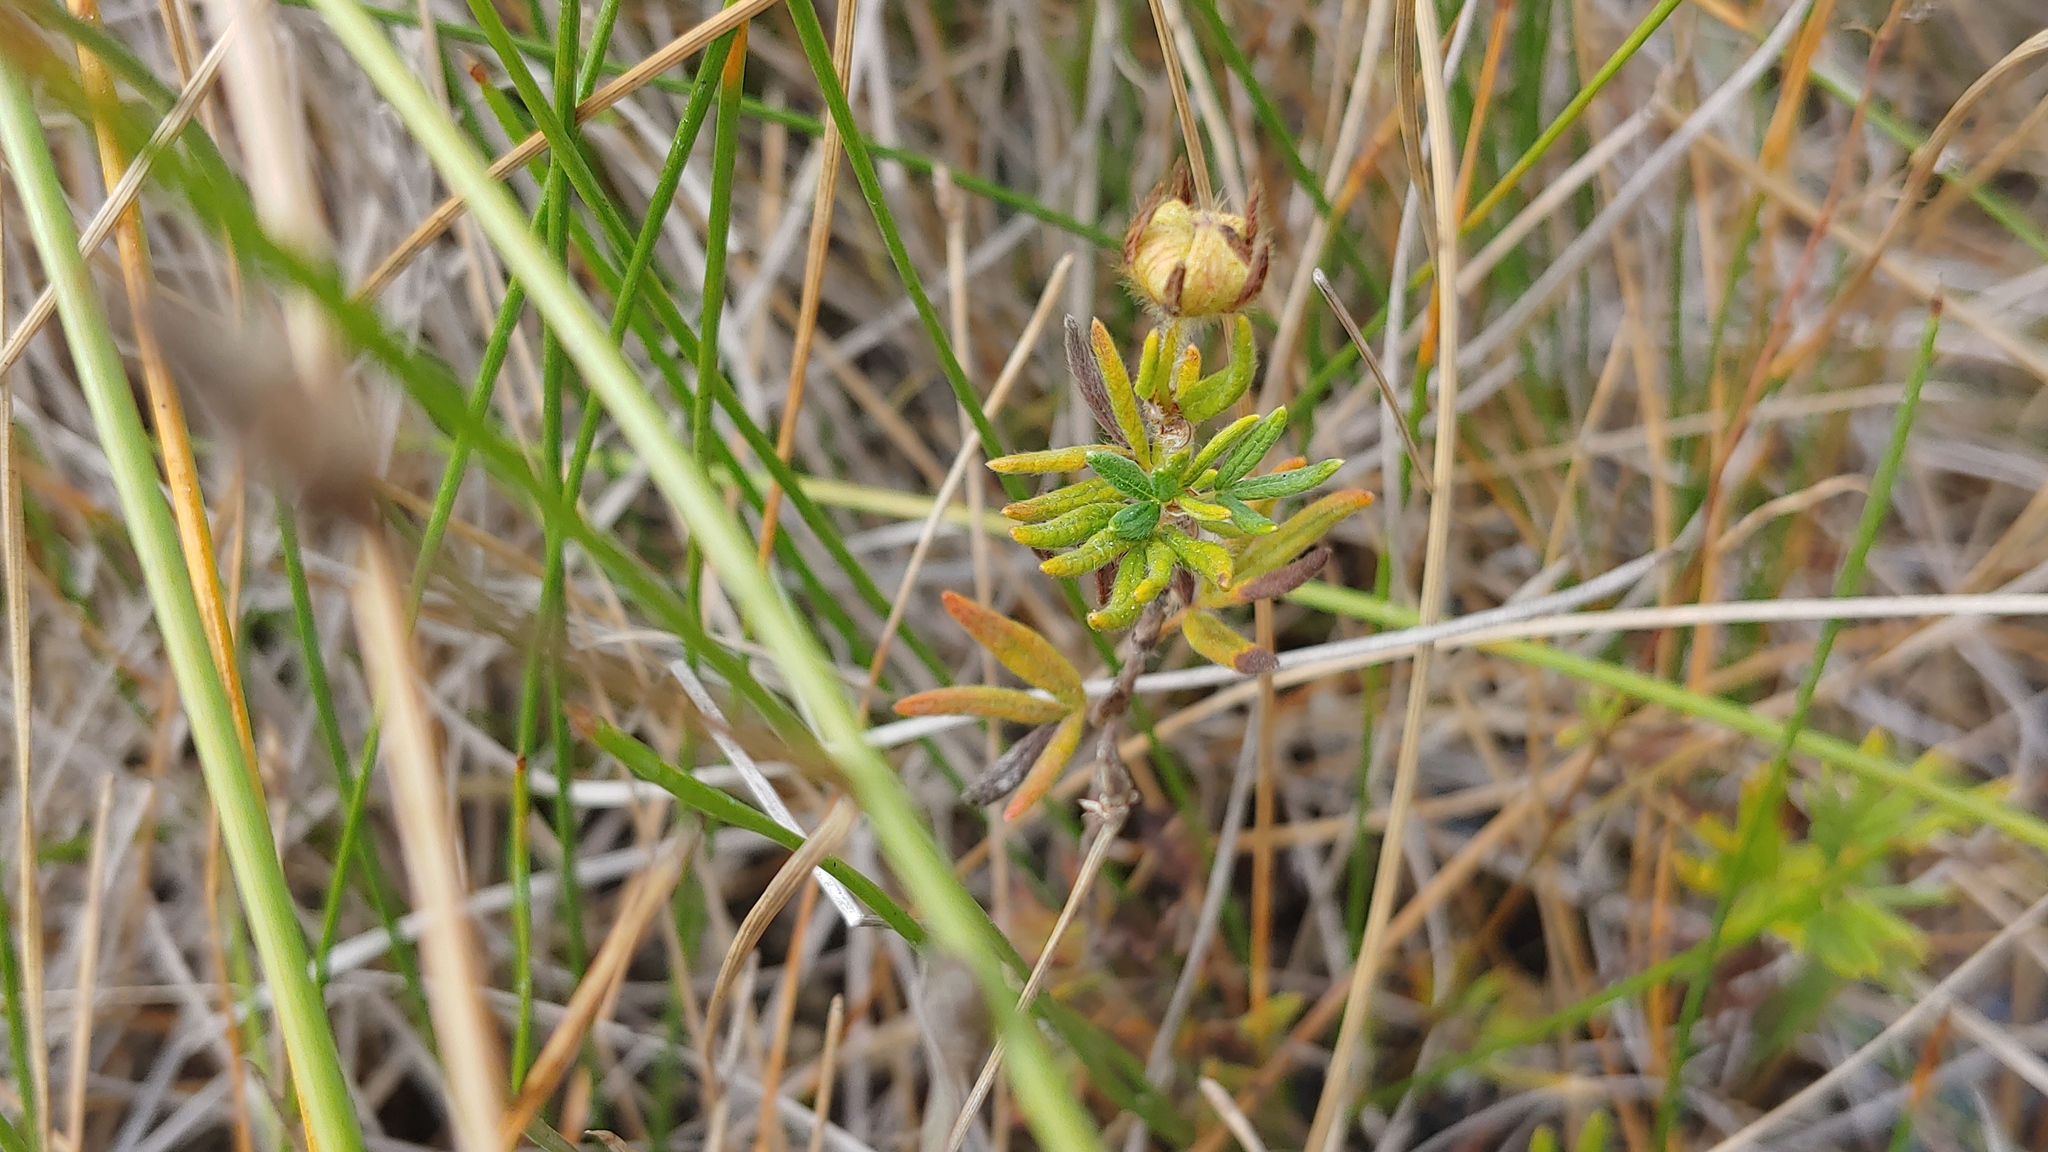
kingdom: Plantae
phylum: Tracheophyta
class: Magnoliopsida
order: Rosales
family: Rosaceae
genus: Dasiphora
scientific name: Dasiphora fruticosa
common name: Shrubby cinquefoil
